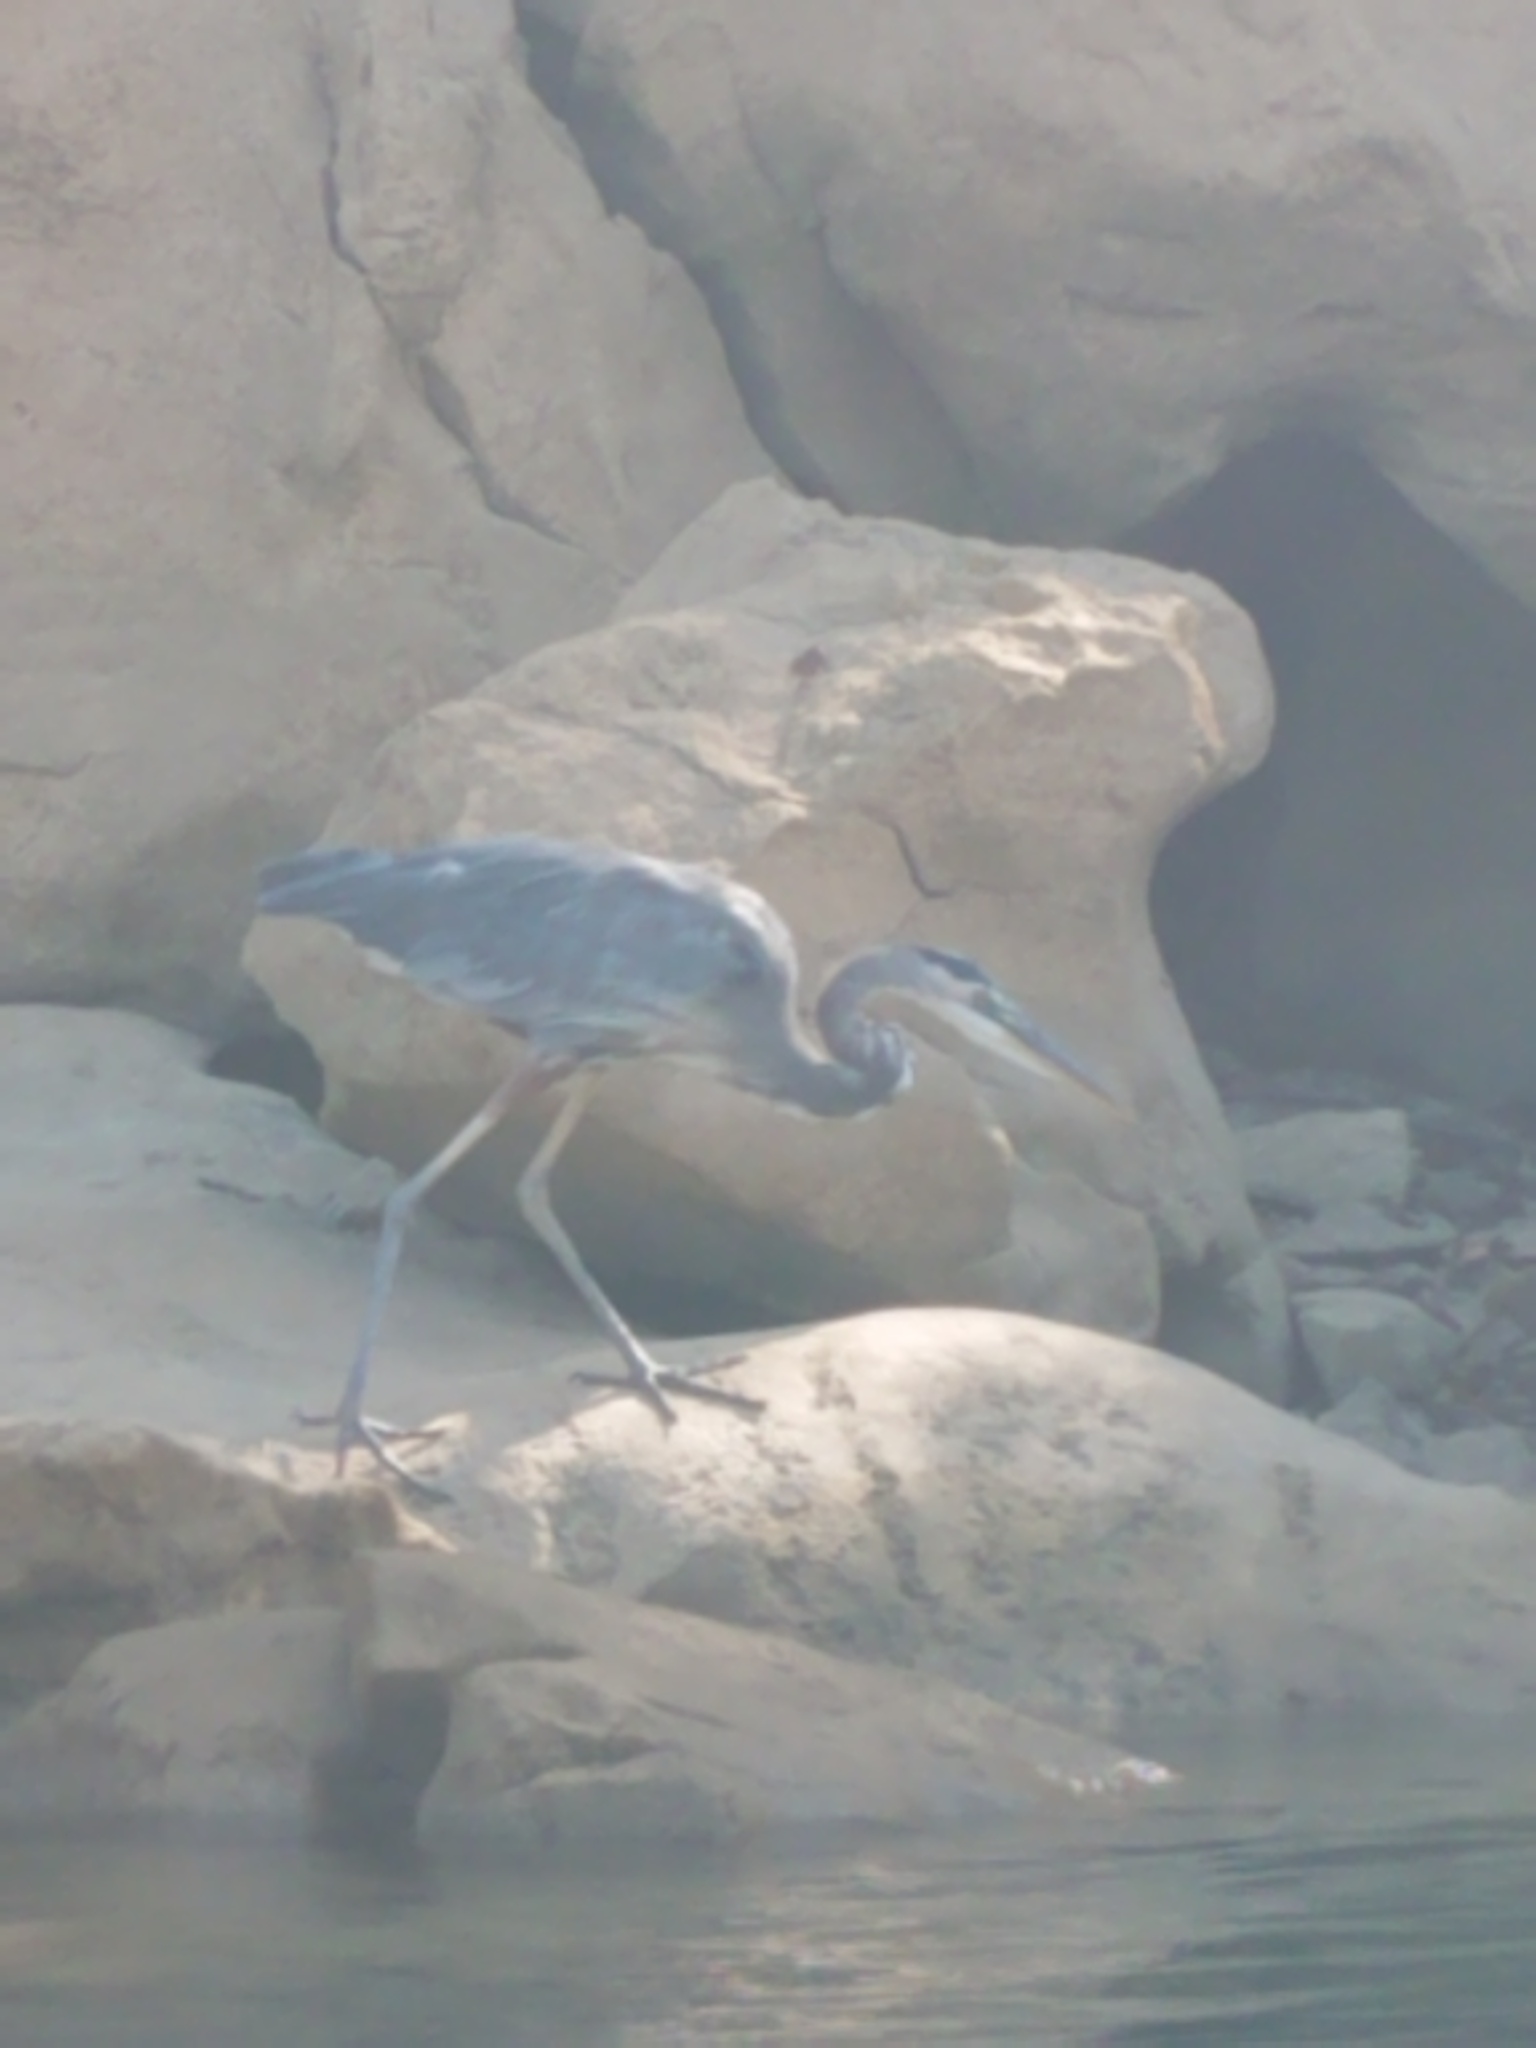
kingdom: Animalia
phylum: Chordata
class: Aves
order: Pelecaniformes
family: Ardeidae
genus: Ardea
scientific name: Ardea herodias
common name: Great blue heron
